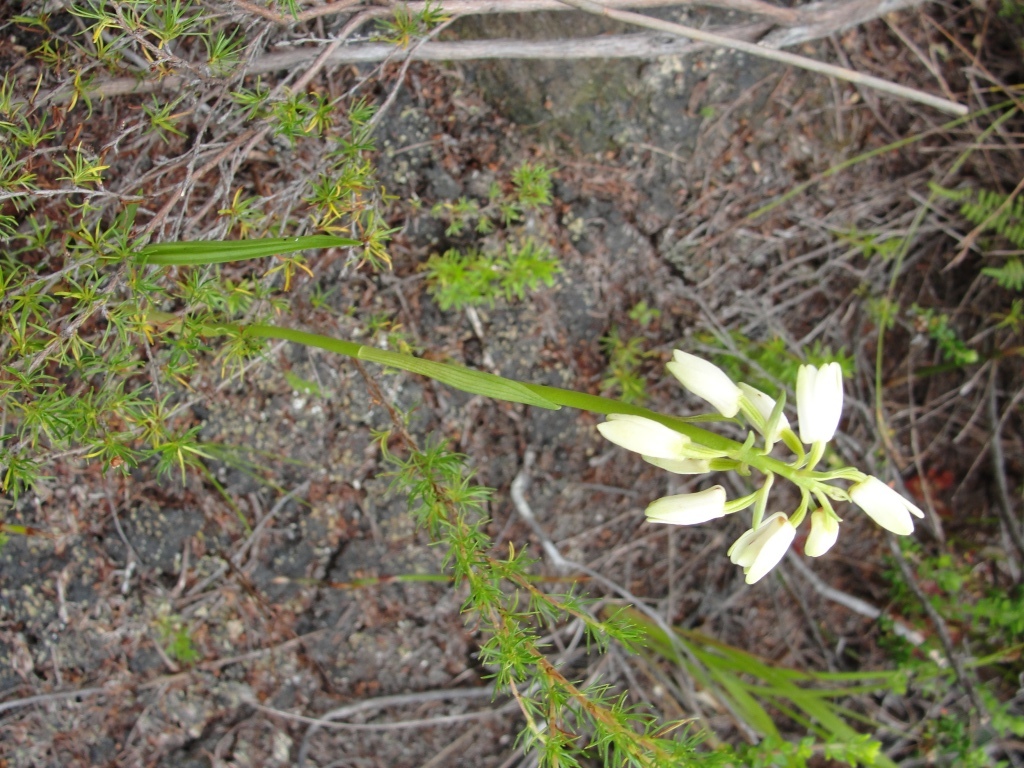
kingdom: Plantae
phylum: Tracheophyta
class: Liliopsida
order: Asparagales
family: Orchidaceae
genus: Eulophia
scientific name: Eulophia aculeata
